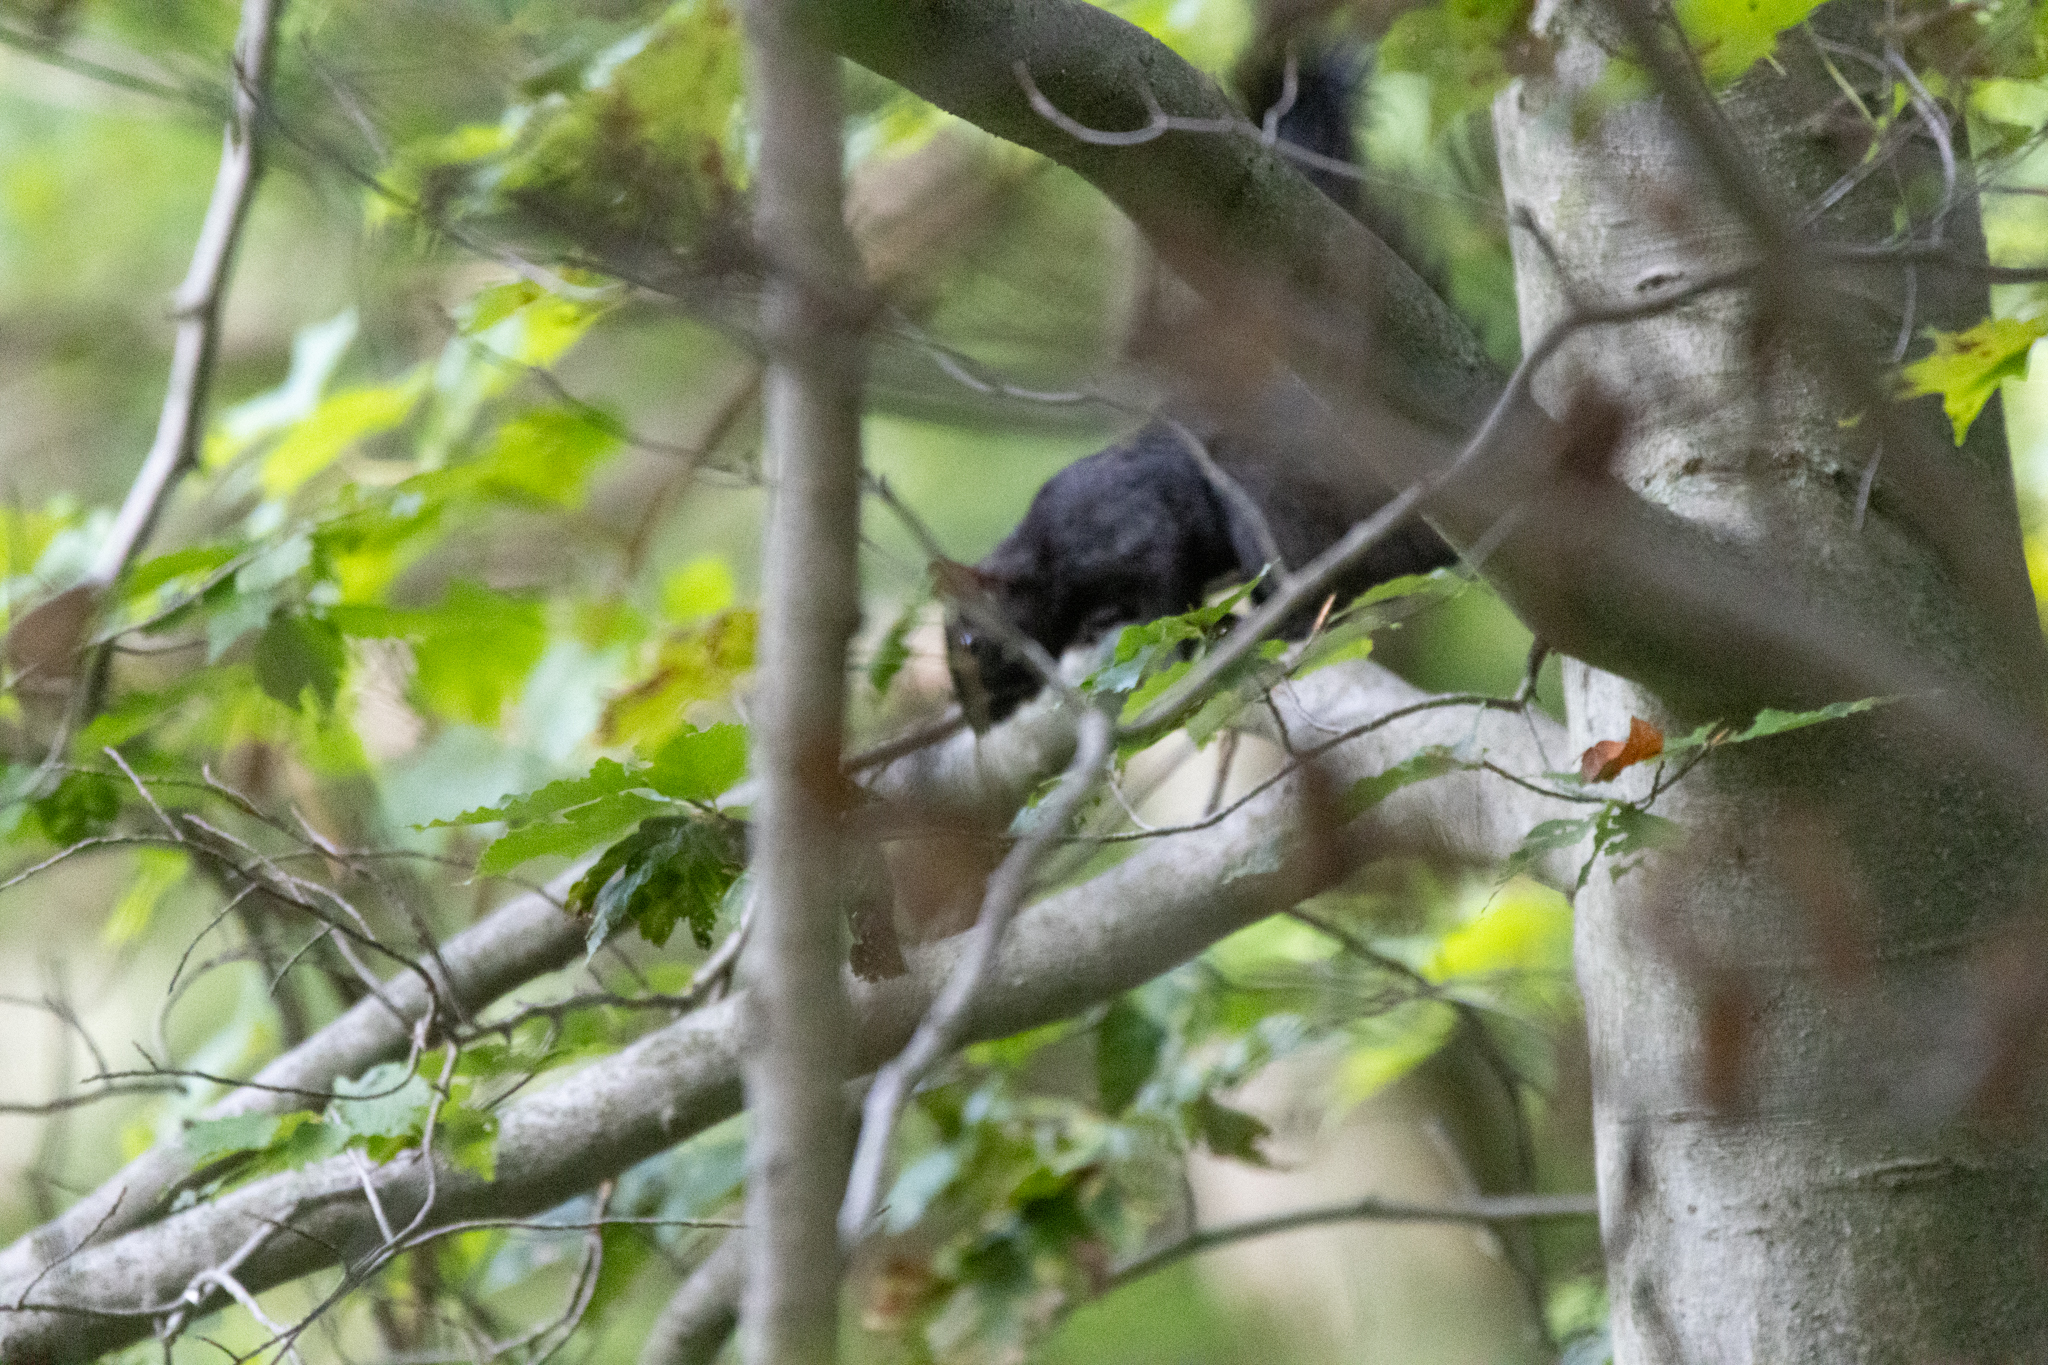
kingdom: Animalia
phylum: Chordata
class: Mammalia
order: Rodentia
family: Sciuridae
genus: Sciurus
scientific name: Sciurus carolinensis
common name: Eastern gray squirrel
